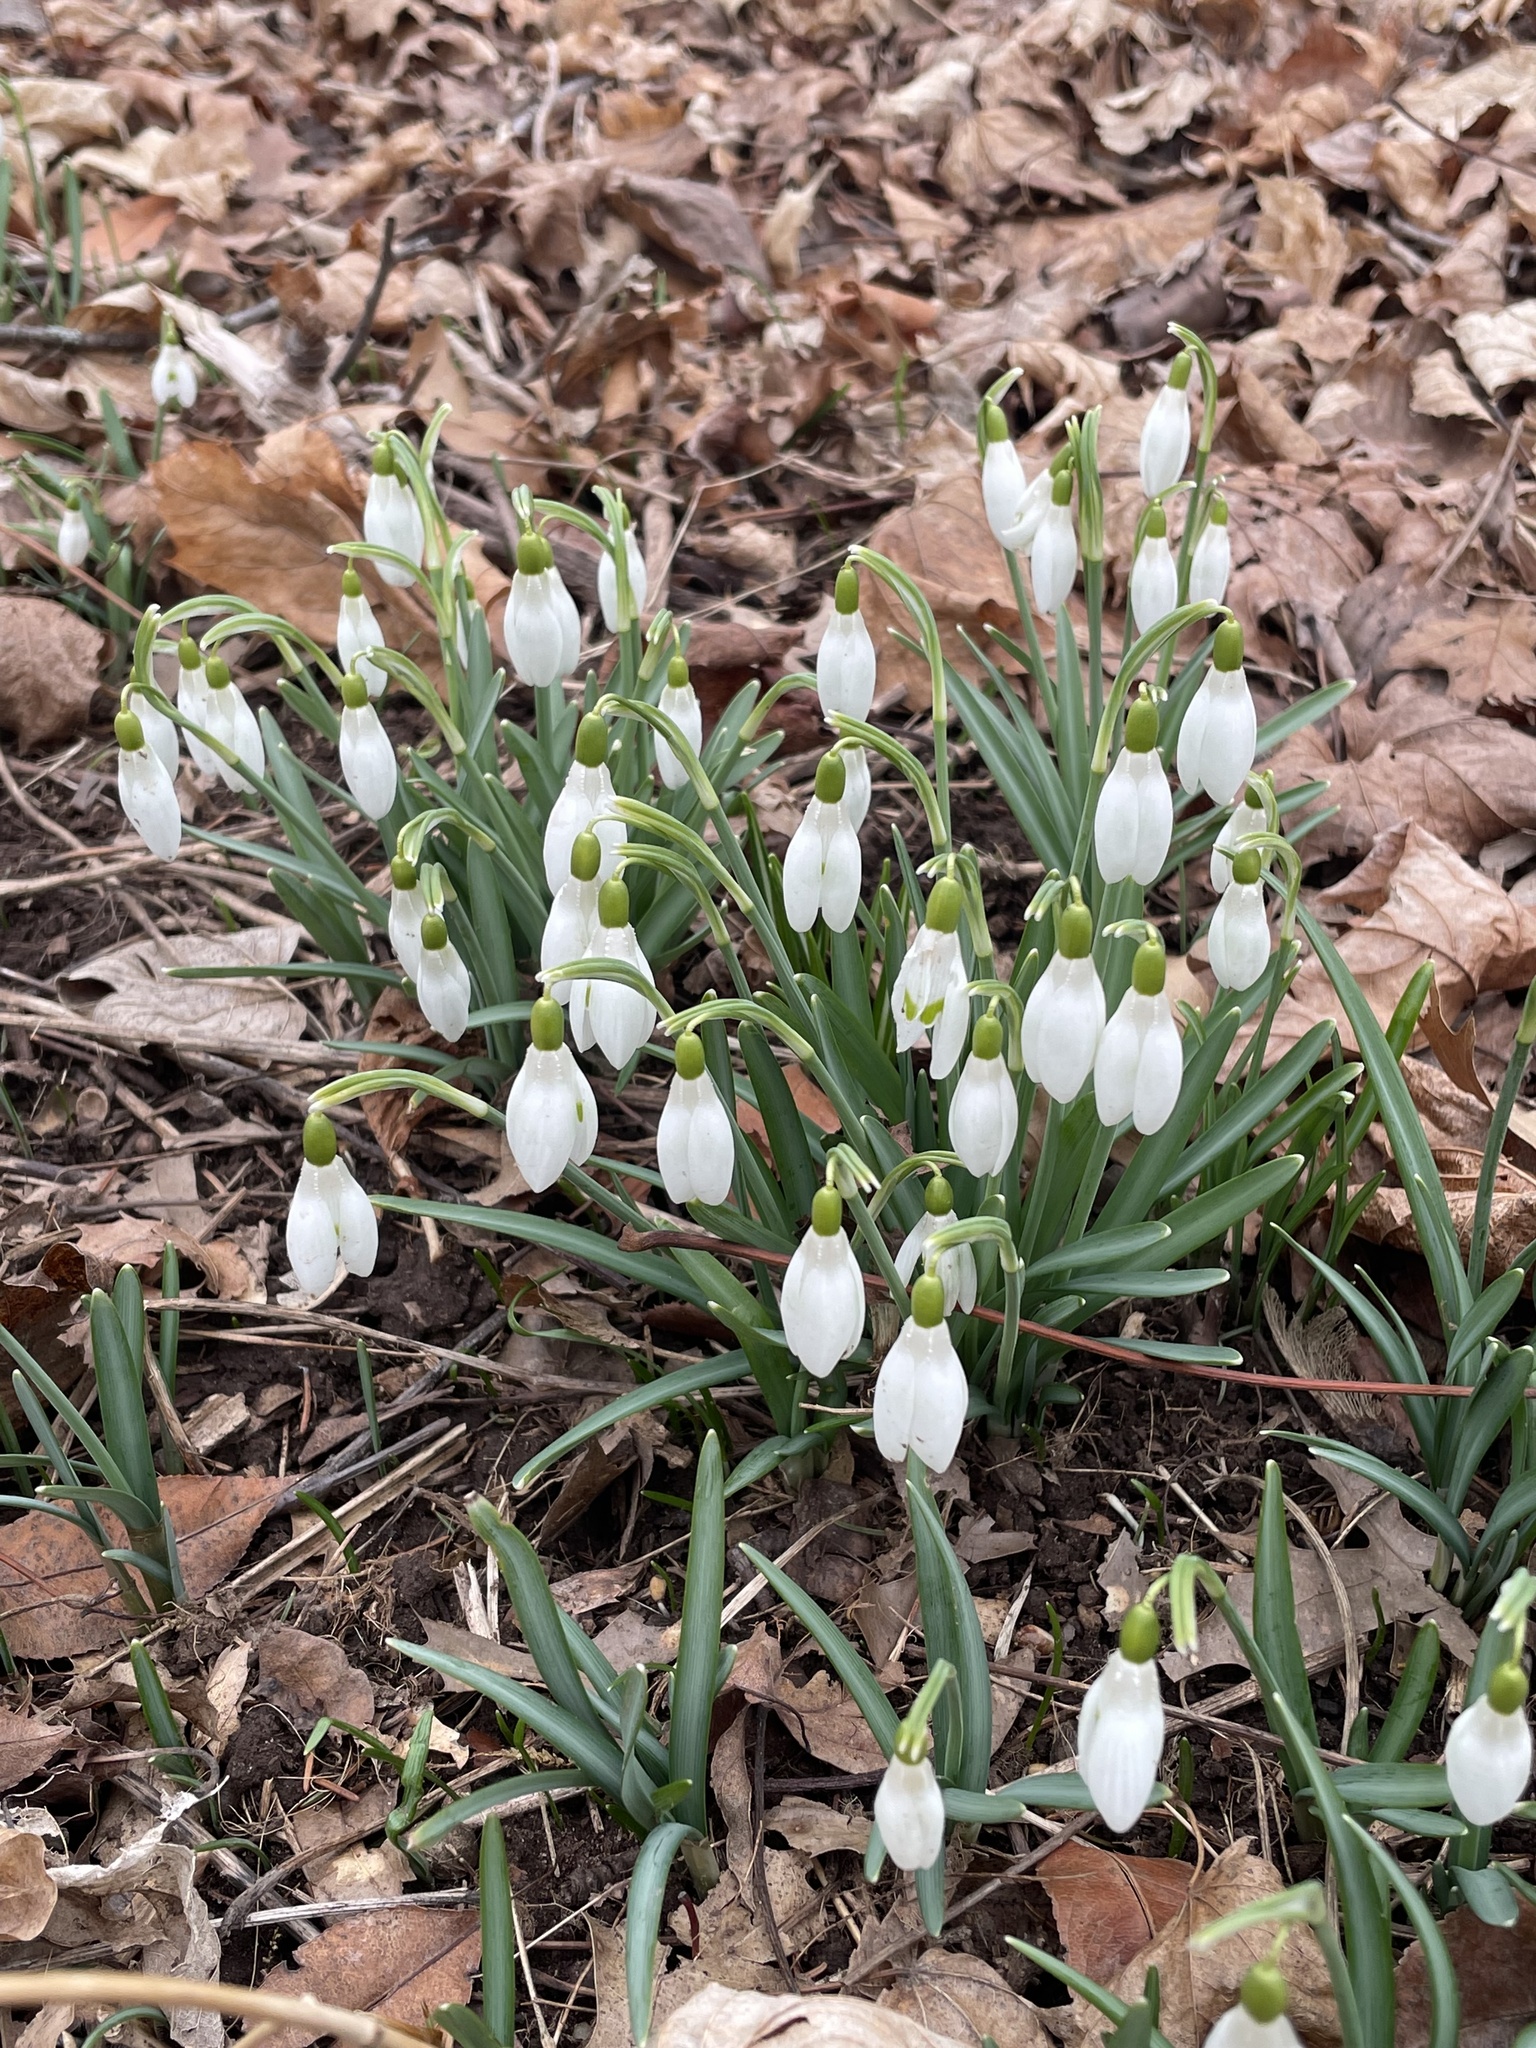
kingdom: Plantae
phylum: Tracheophyta
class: Liliopsida
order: Asparagales
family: Amaryllidaceae
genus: Galanthus
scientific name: Galanthus nivalis
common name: Snowdrop
